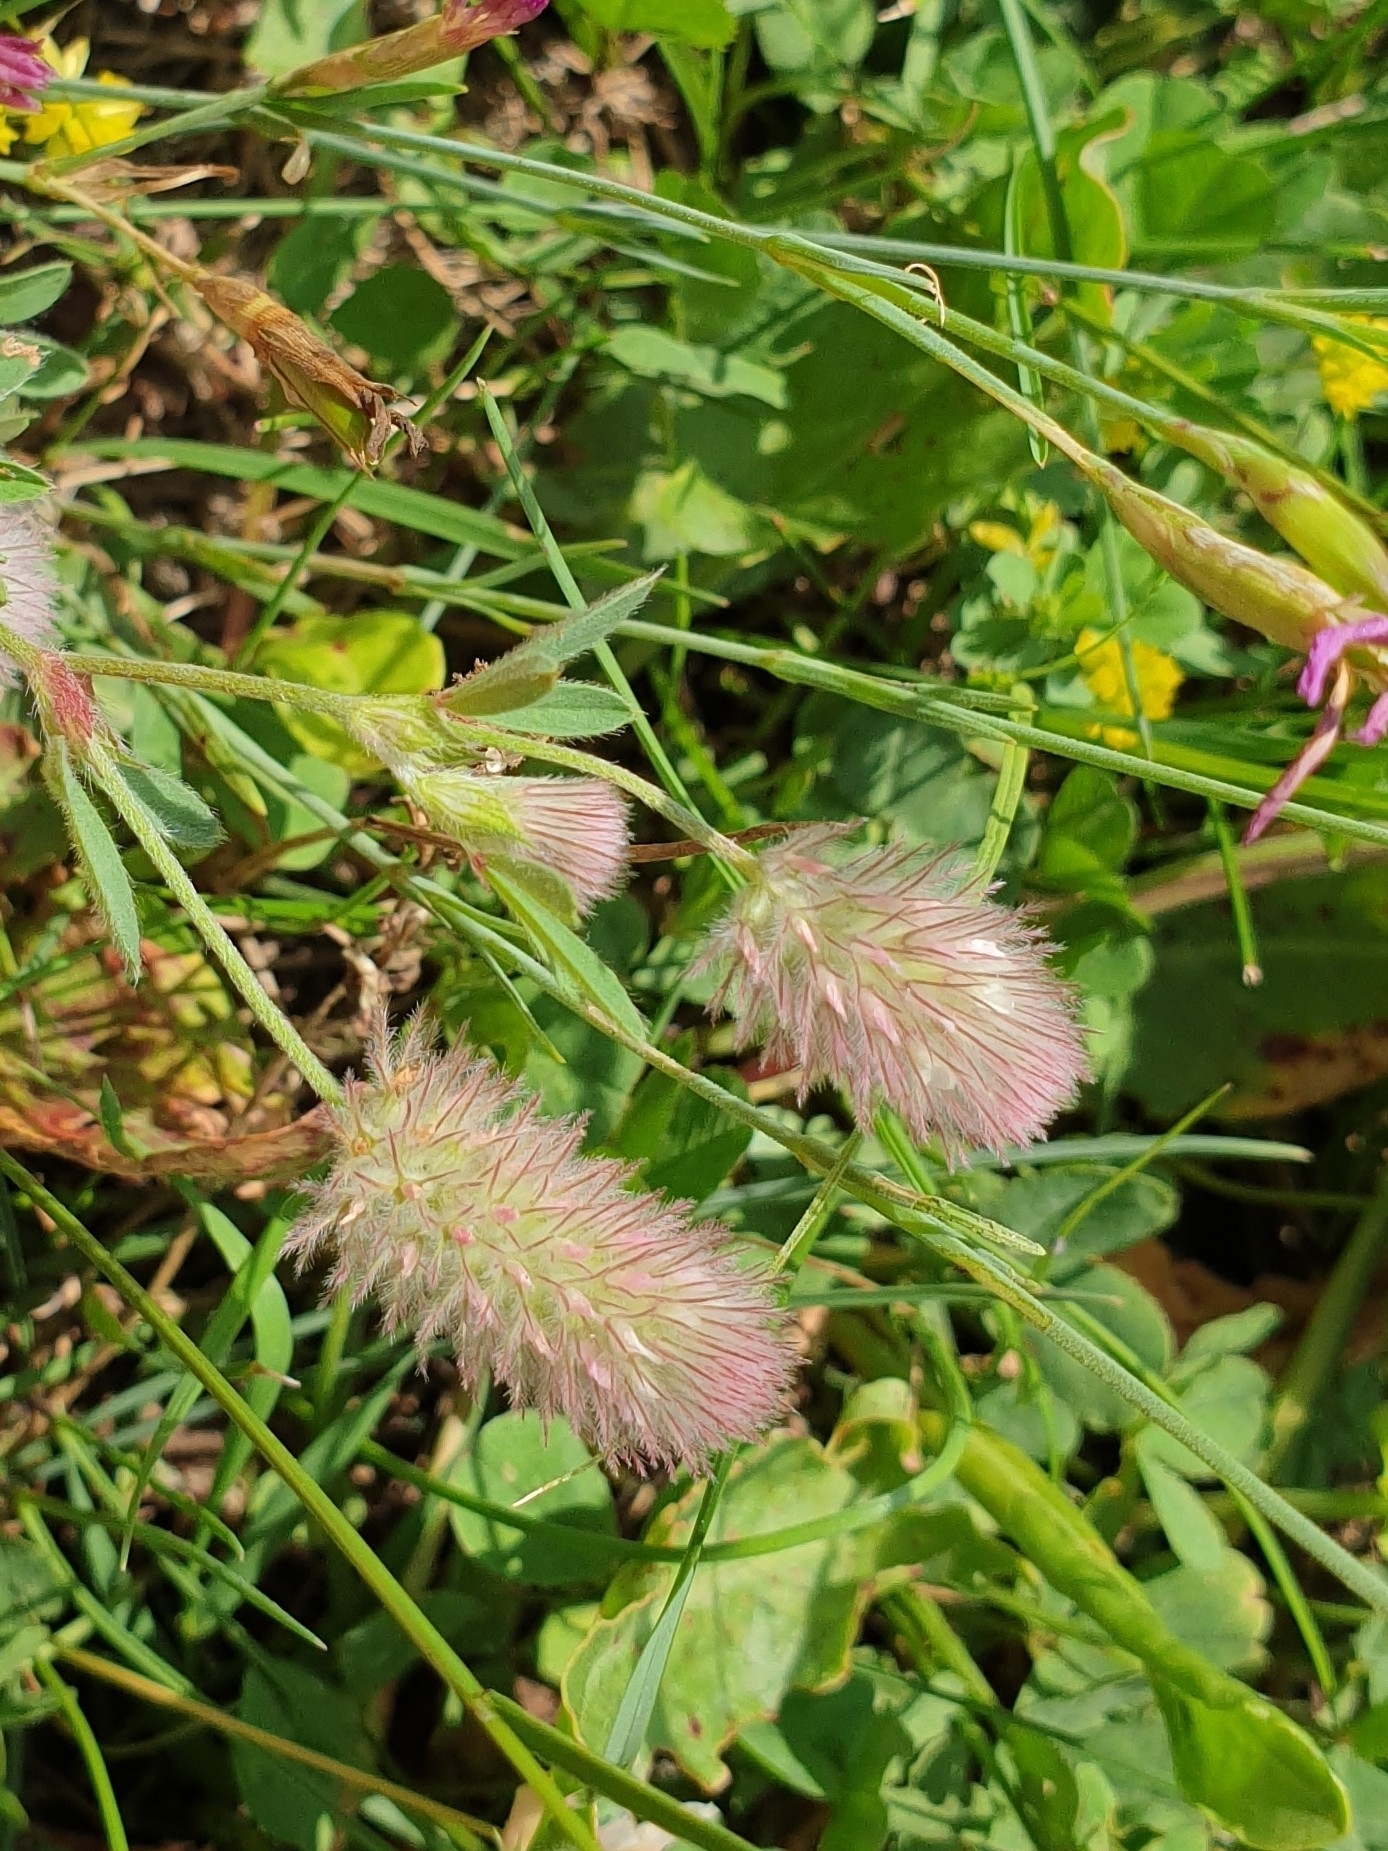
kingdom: Plantae
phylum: Tracheophyta
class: Magnoliopsida
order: Fabales
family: Fabaceae
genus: Trifolium
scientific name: Trifolium arvense
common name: Hare's-foot clover
